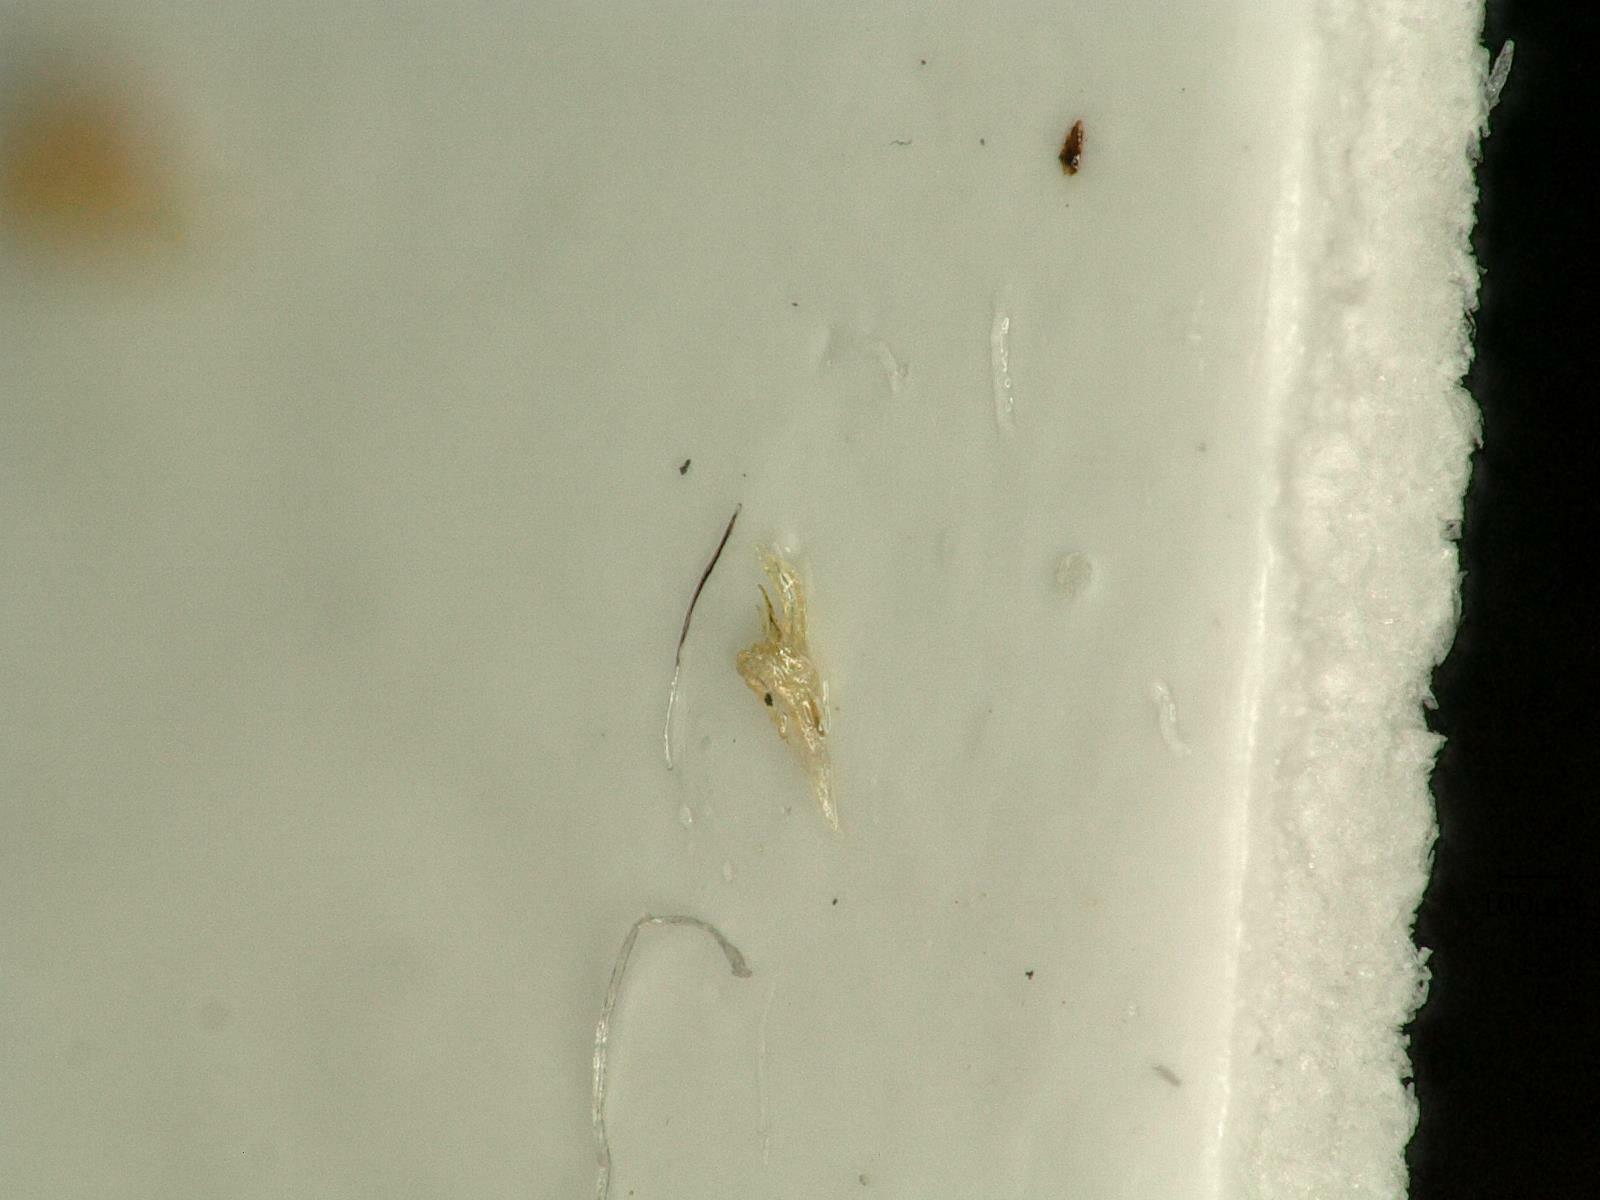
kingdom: Animalia
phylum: Arthropoda
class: Insecta
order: Hemiptera
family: Cicadellidae
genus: Kybos
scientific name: Kybos strobli
